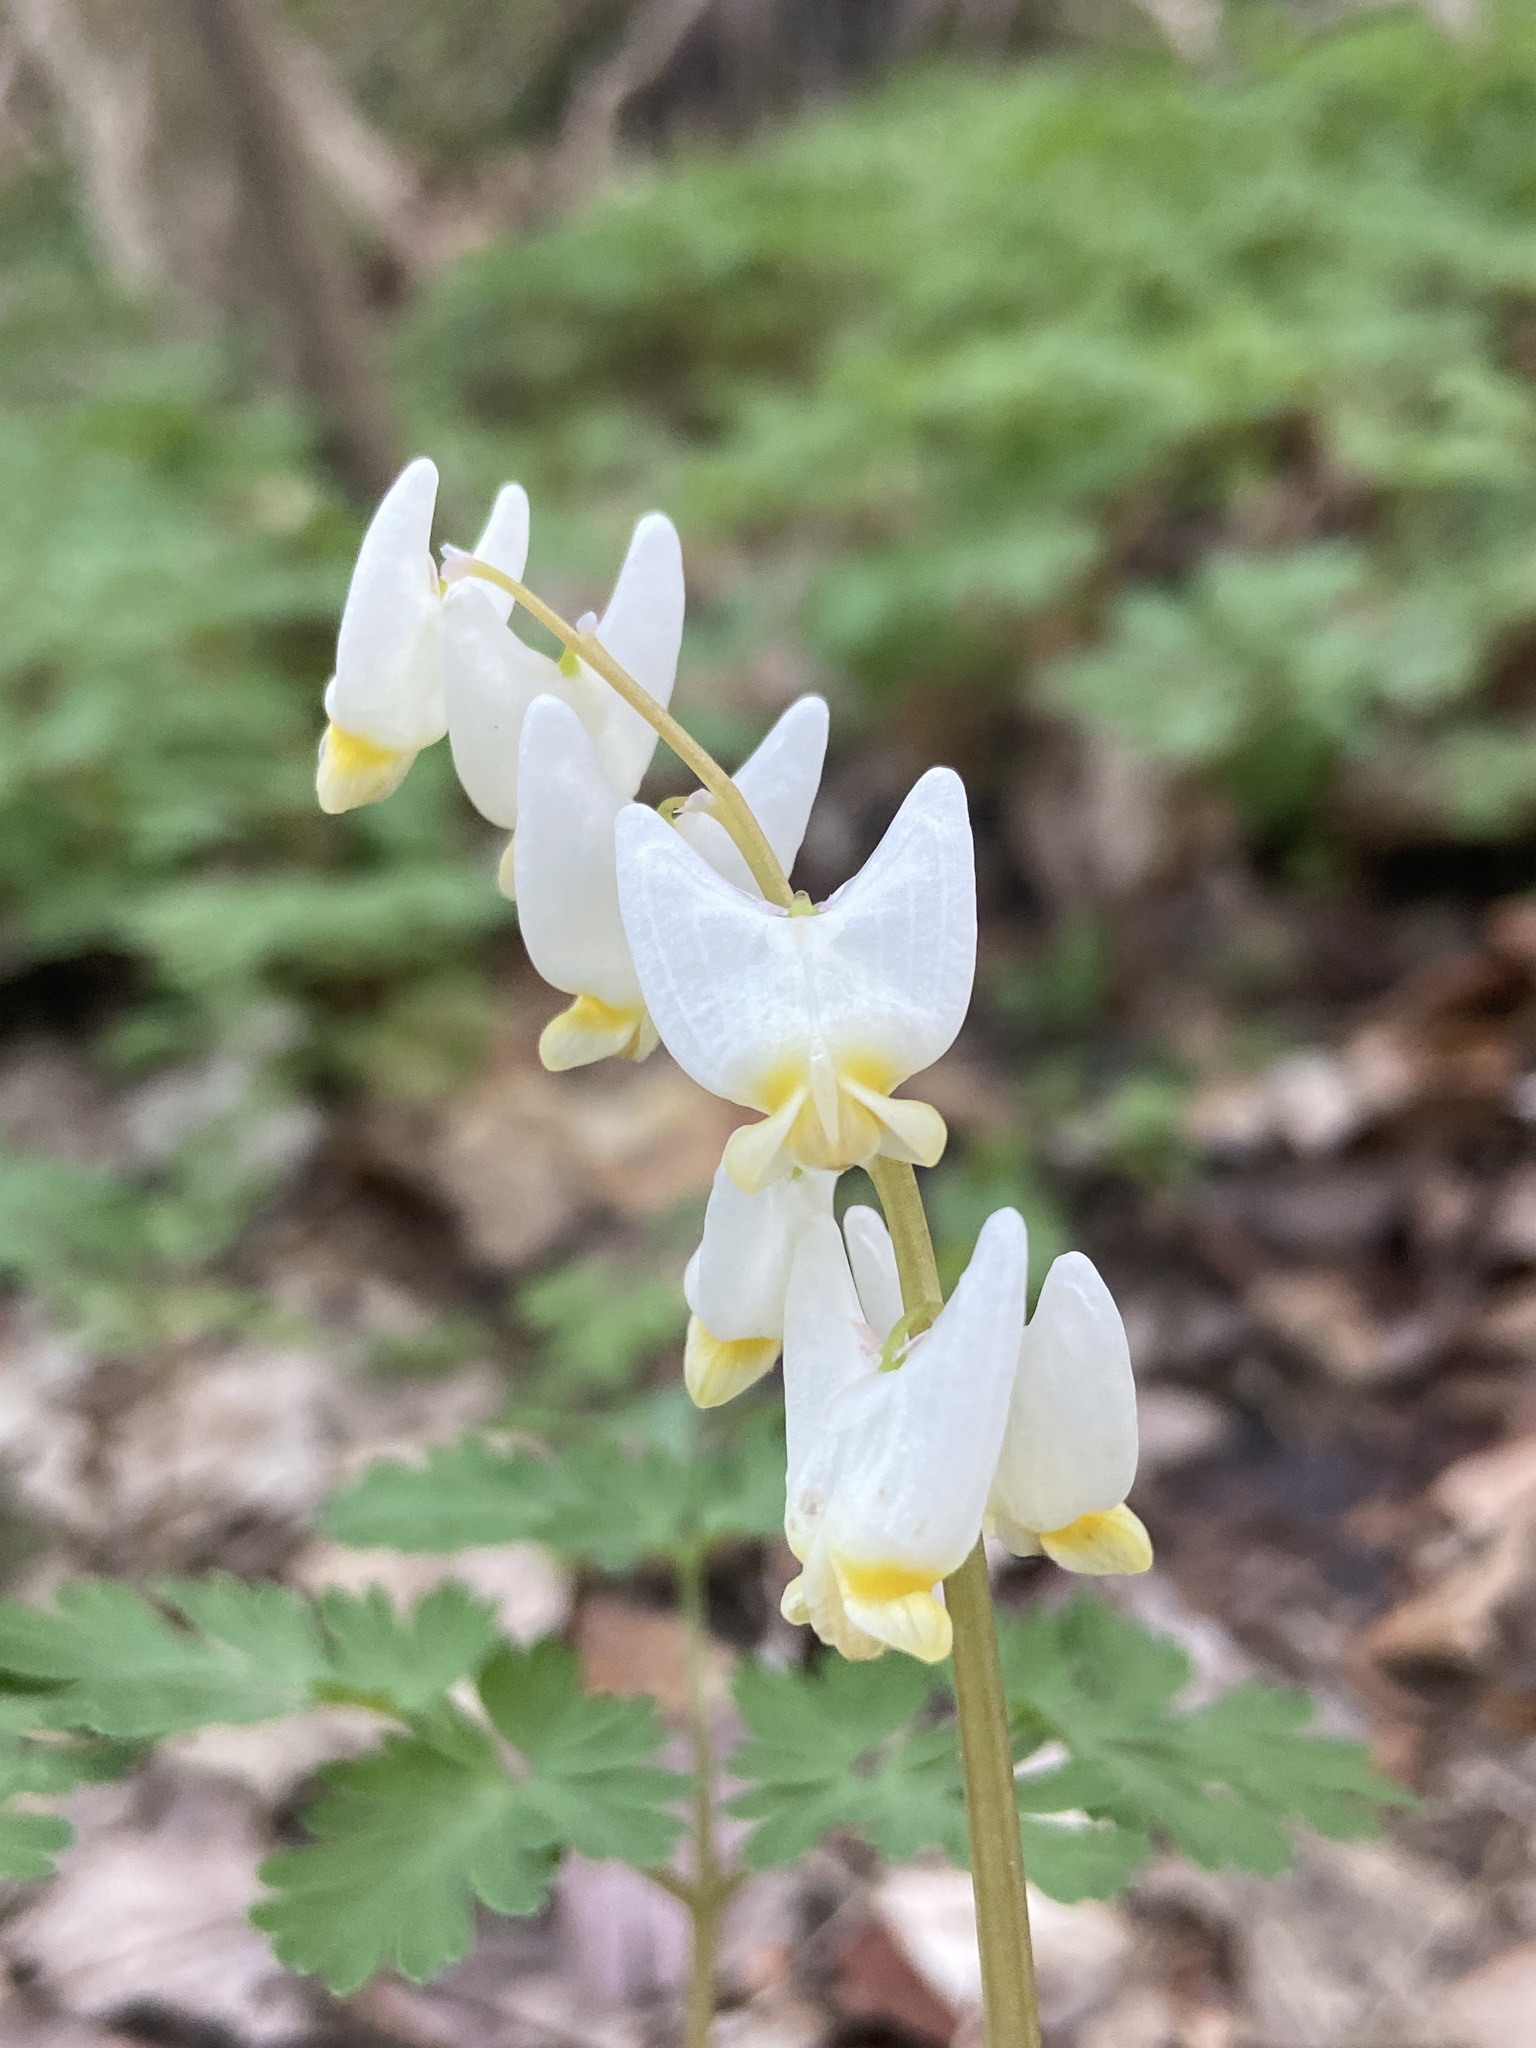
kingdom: Plantae
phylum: Tracheophyta
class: Magnoliopsida
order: Ranunculales
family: Papaveraceae
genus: Dicentra
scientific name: Dicentra cucullaria
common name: Dutchman's breeches
